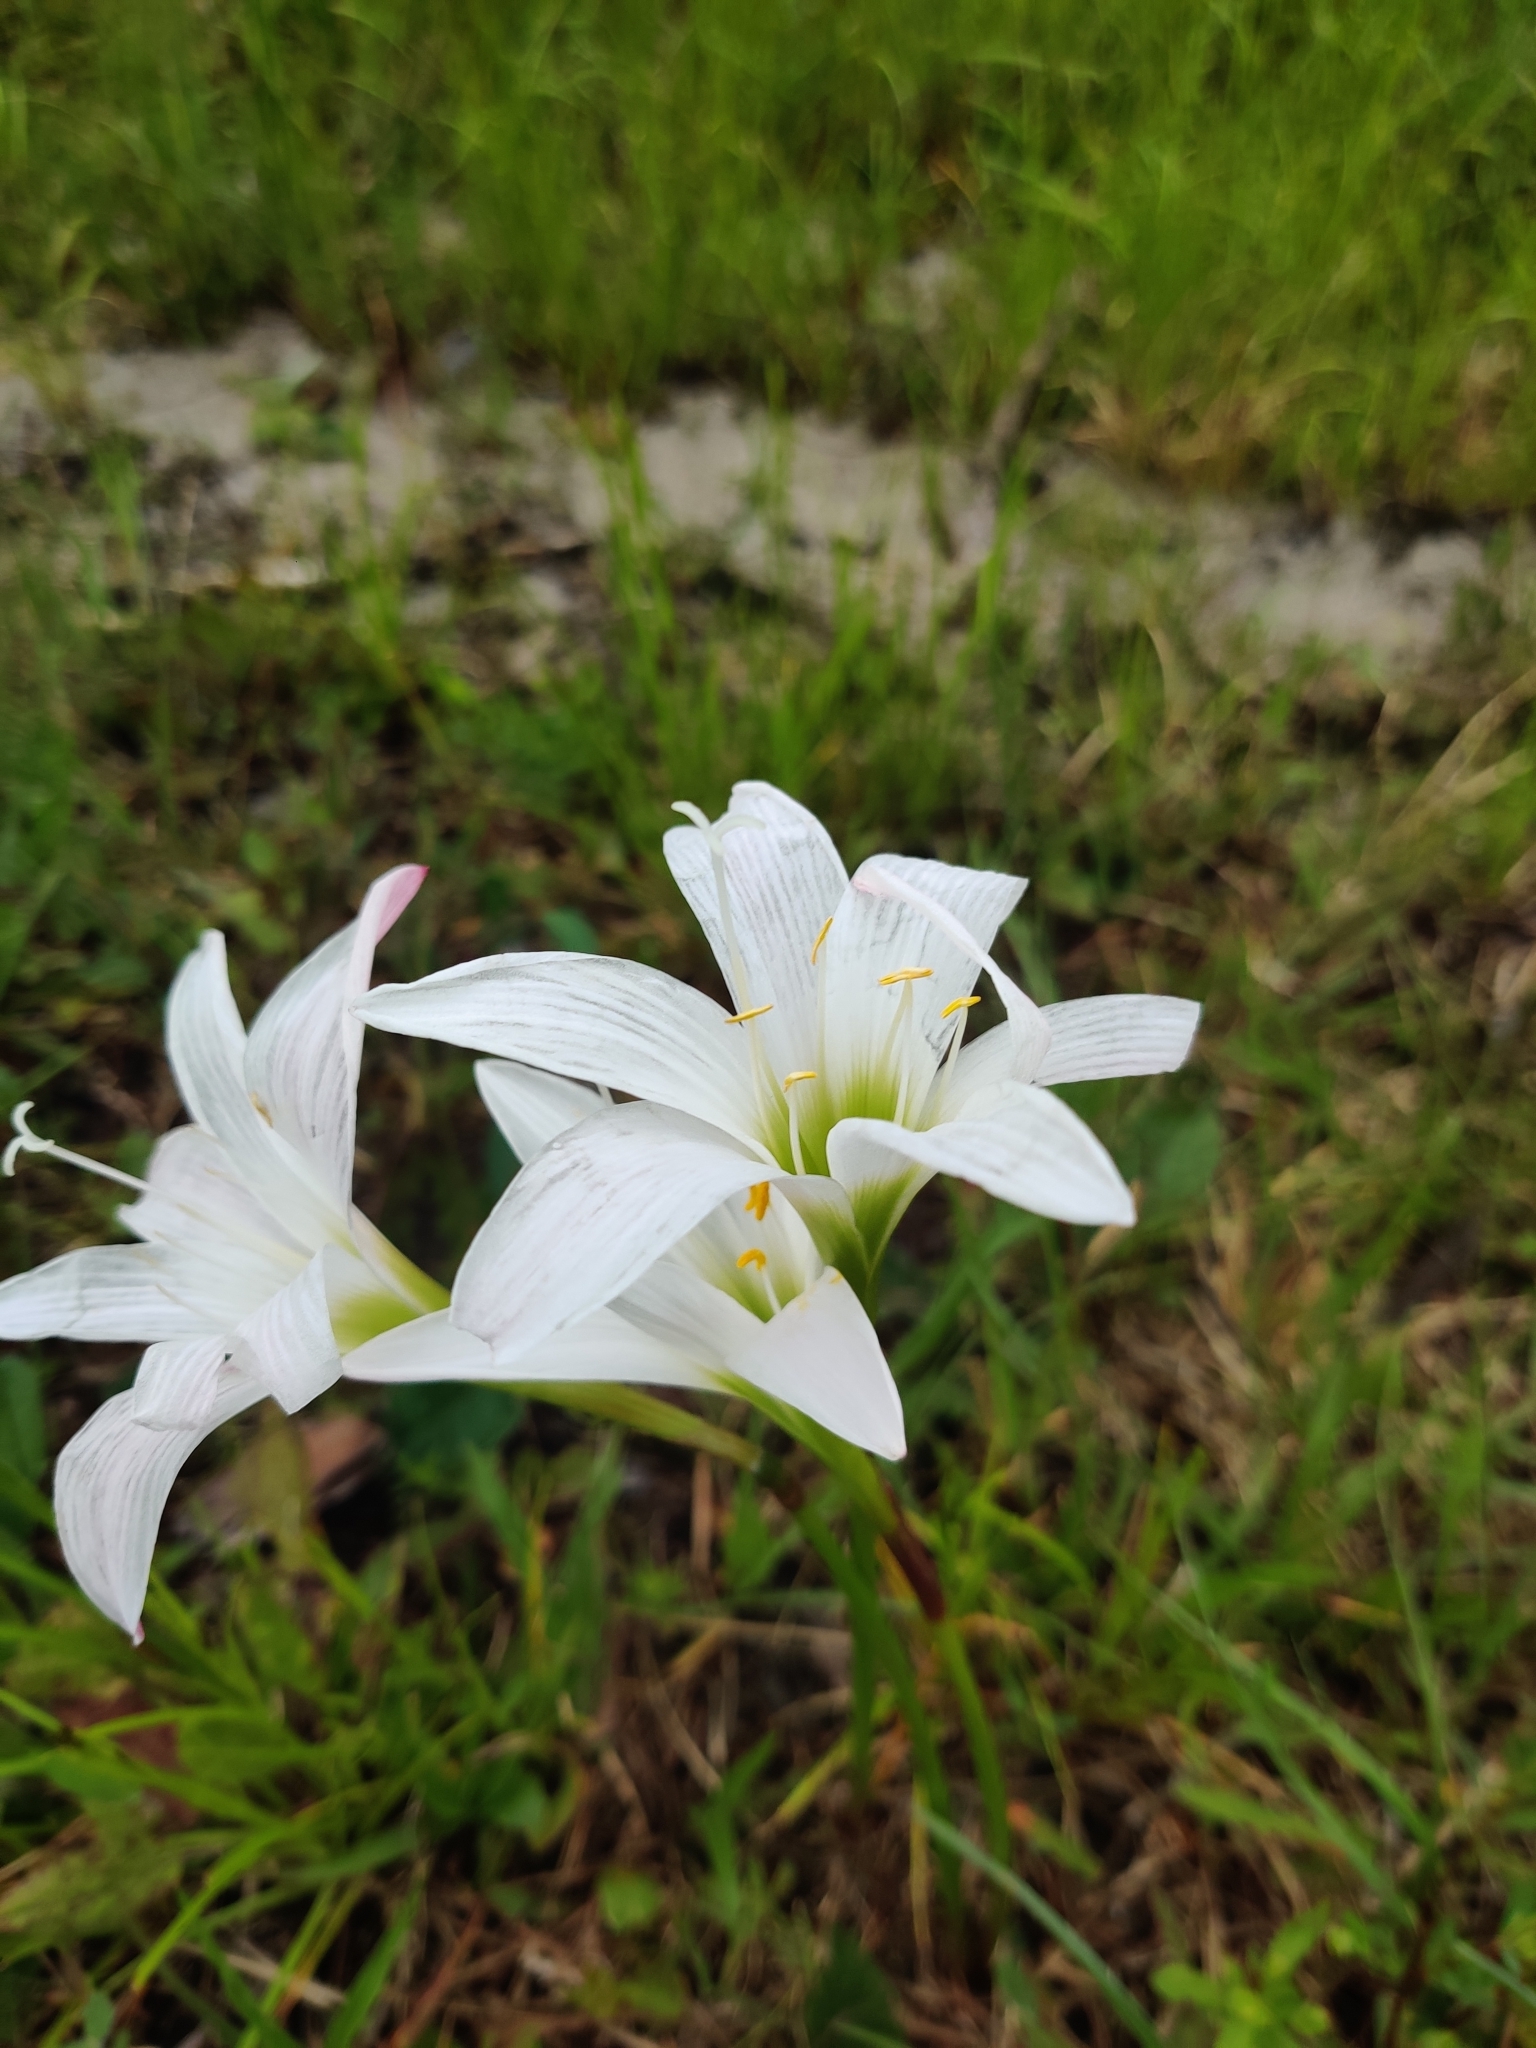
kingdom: Plantae
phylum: Tracheophyta
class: Liliopsida
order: Asparagales
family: Amaryllidaceae
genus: Zephyranthes
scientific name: Zephyranthes atamasco
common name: Atamasco lily
